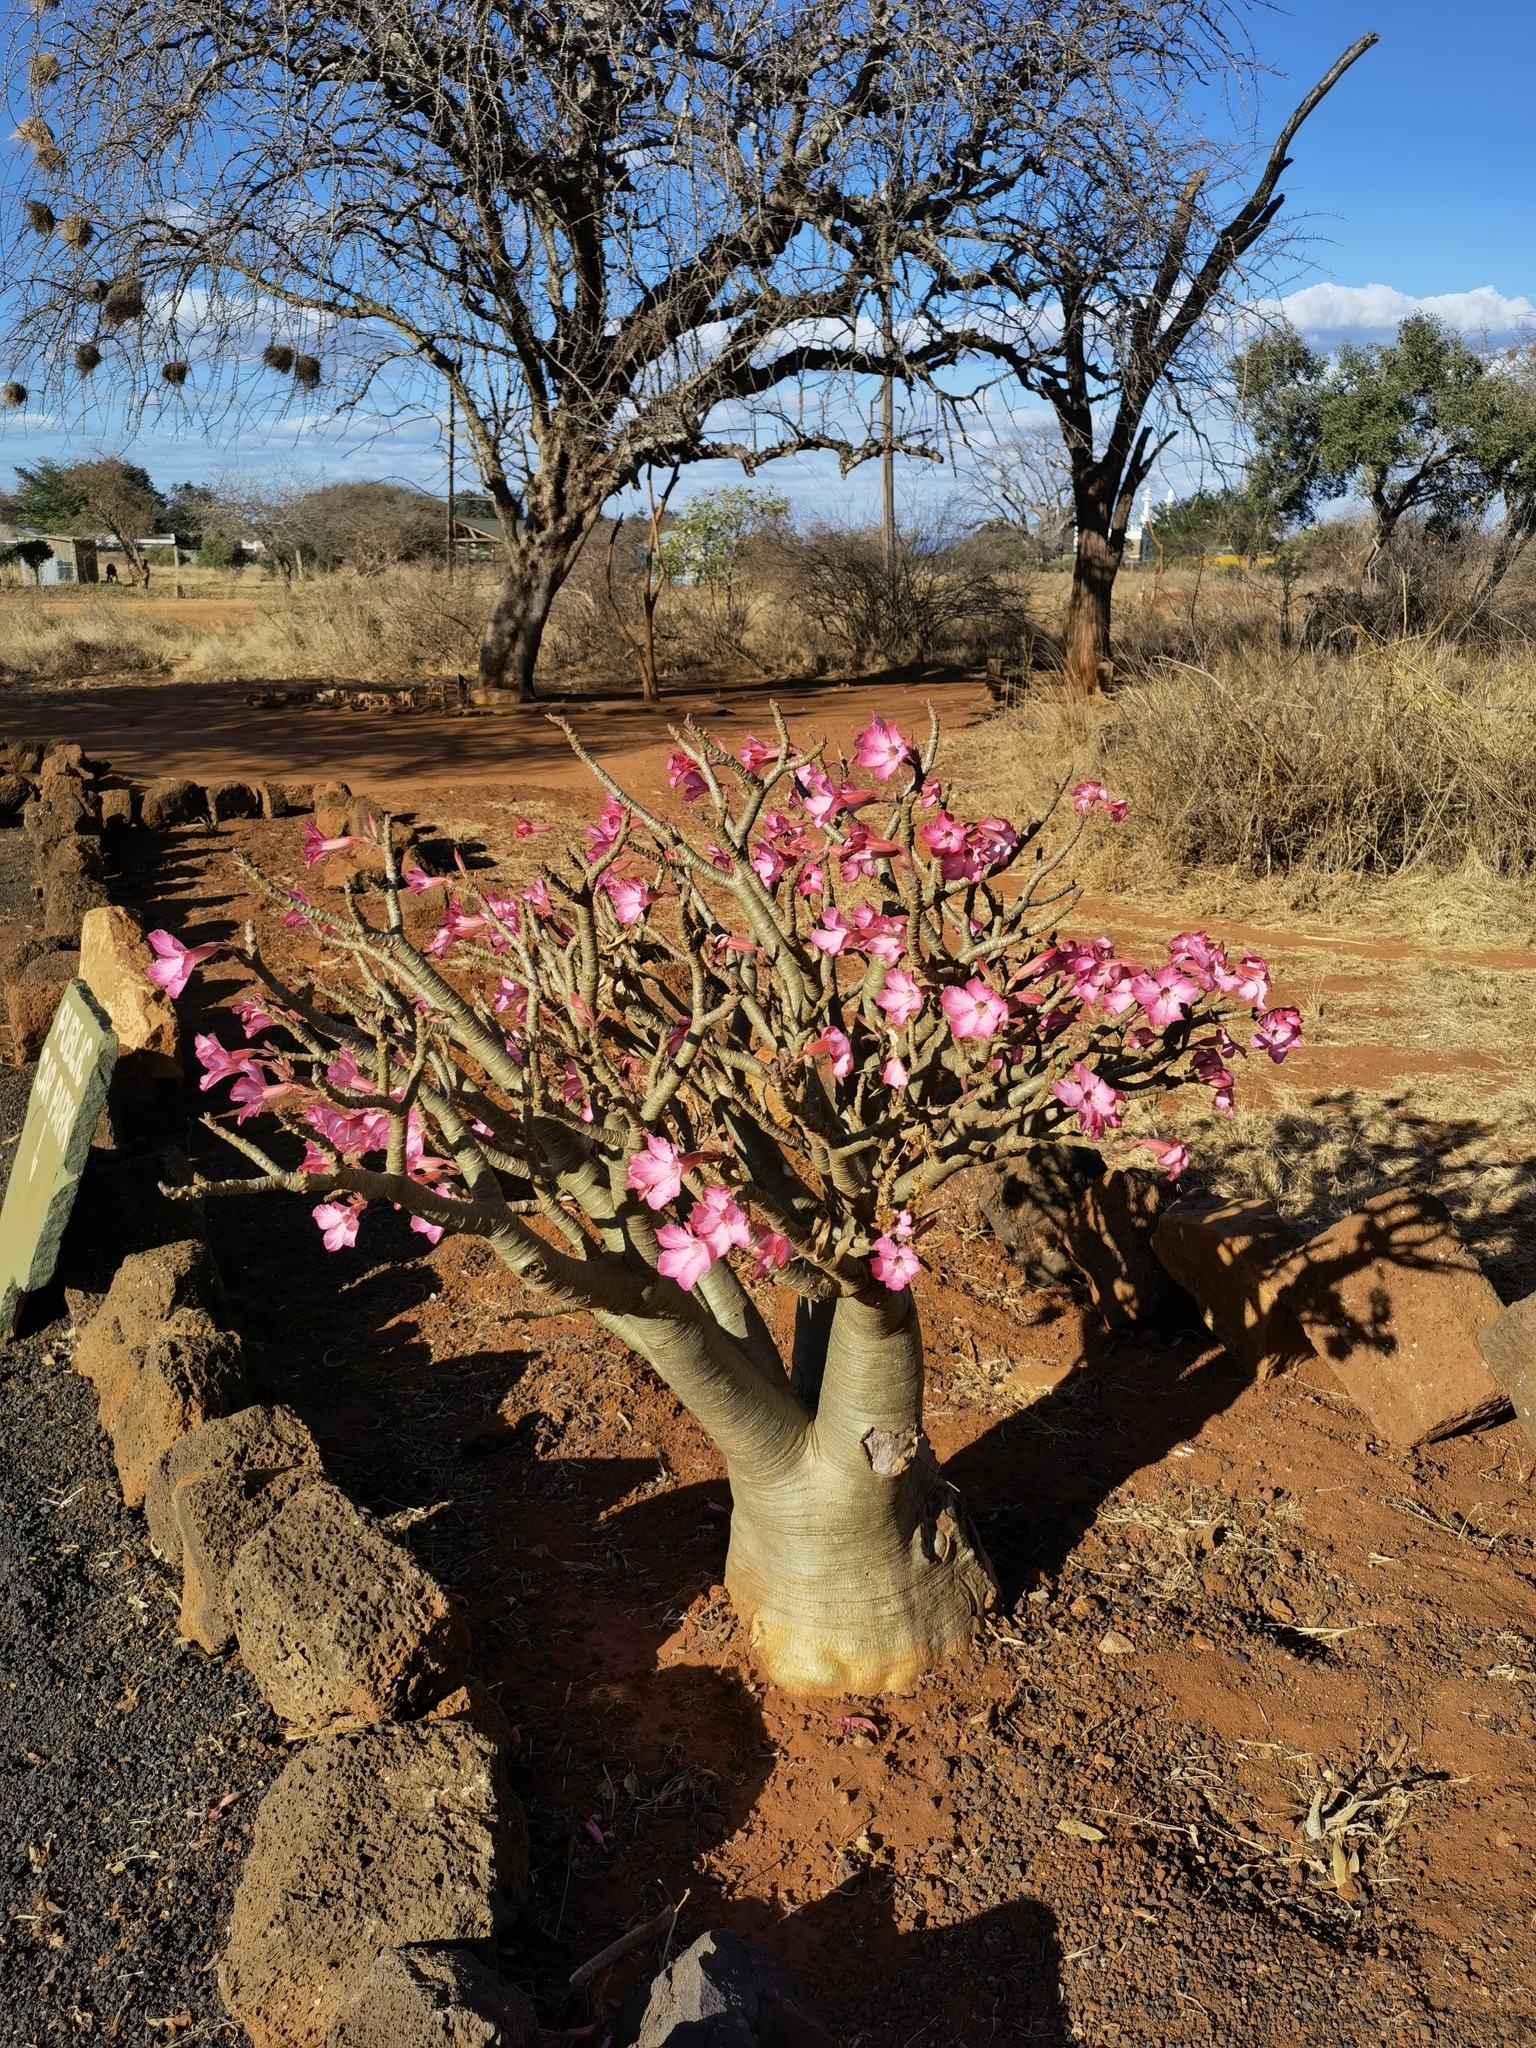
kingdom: Plantae
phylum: Tracheophyta
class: Magnoliopsida
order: Gentianales
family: Apocynaceae
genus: Adenium
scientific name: Adenium obesum
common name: Desert-rose
